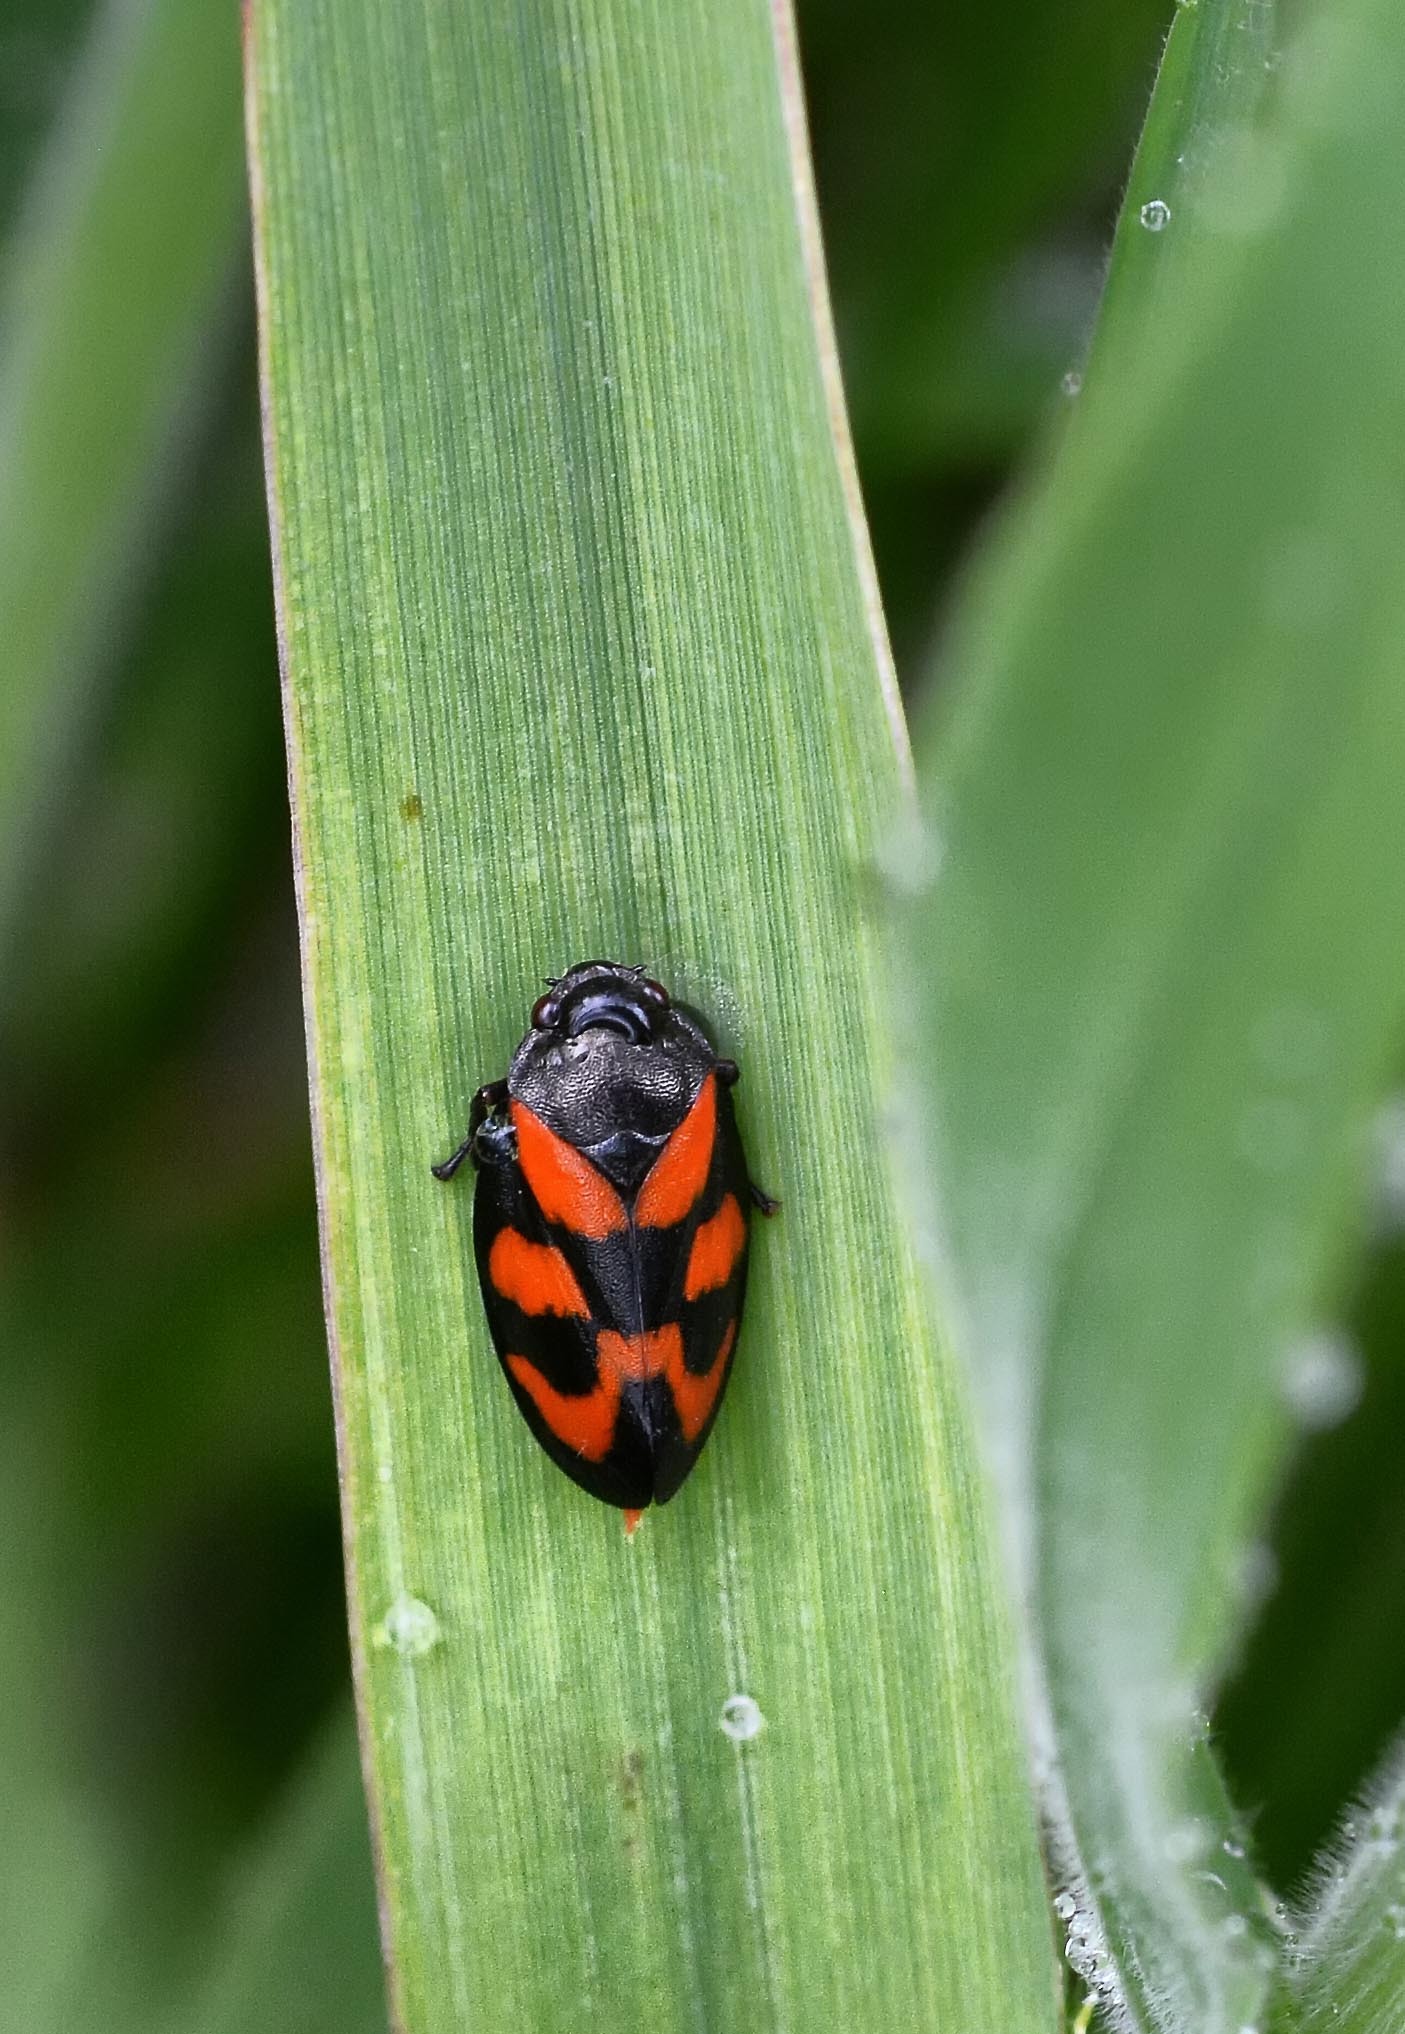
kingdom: Animalia
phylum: Arthropoda
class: Insecta
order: Hemiptera
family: Cercopidae
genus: Cercopis
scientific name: Cercopis vulnerata
